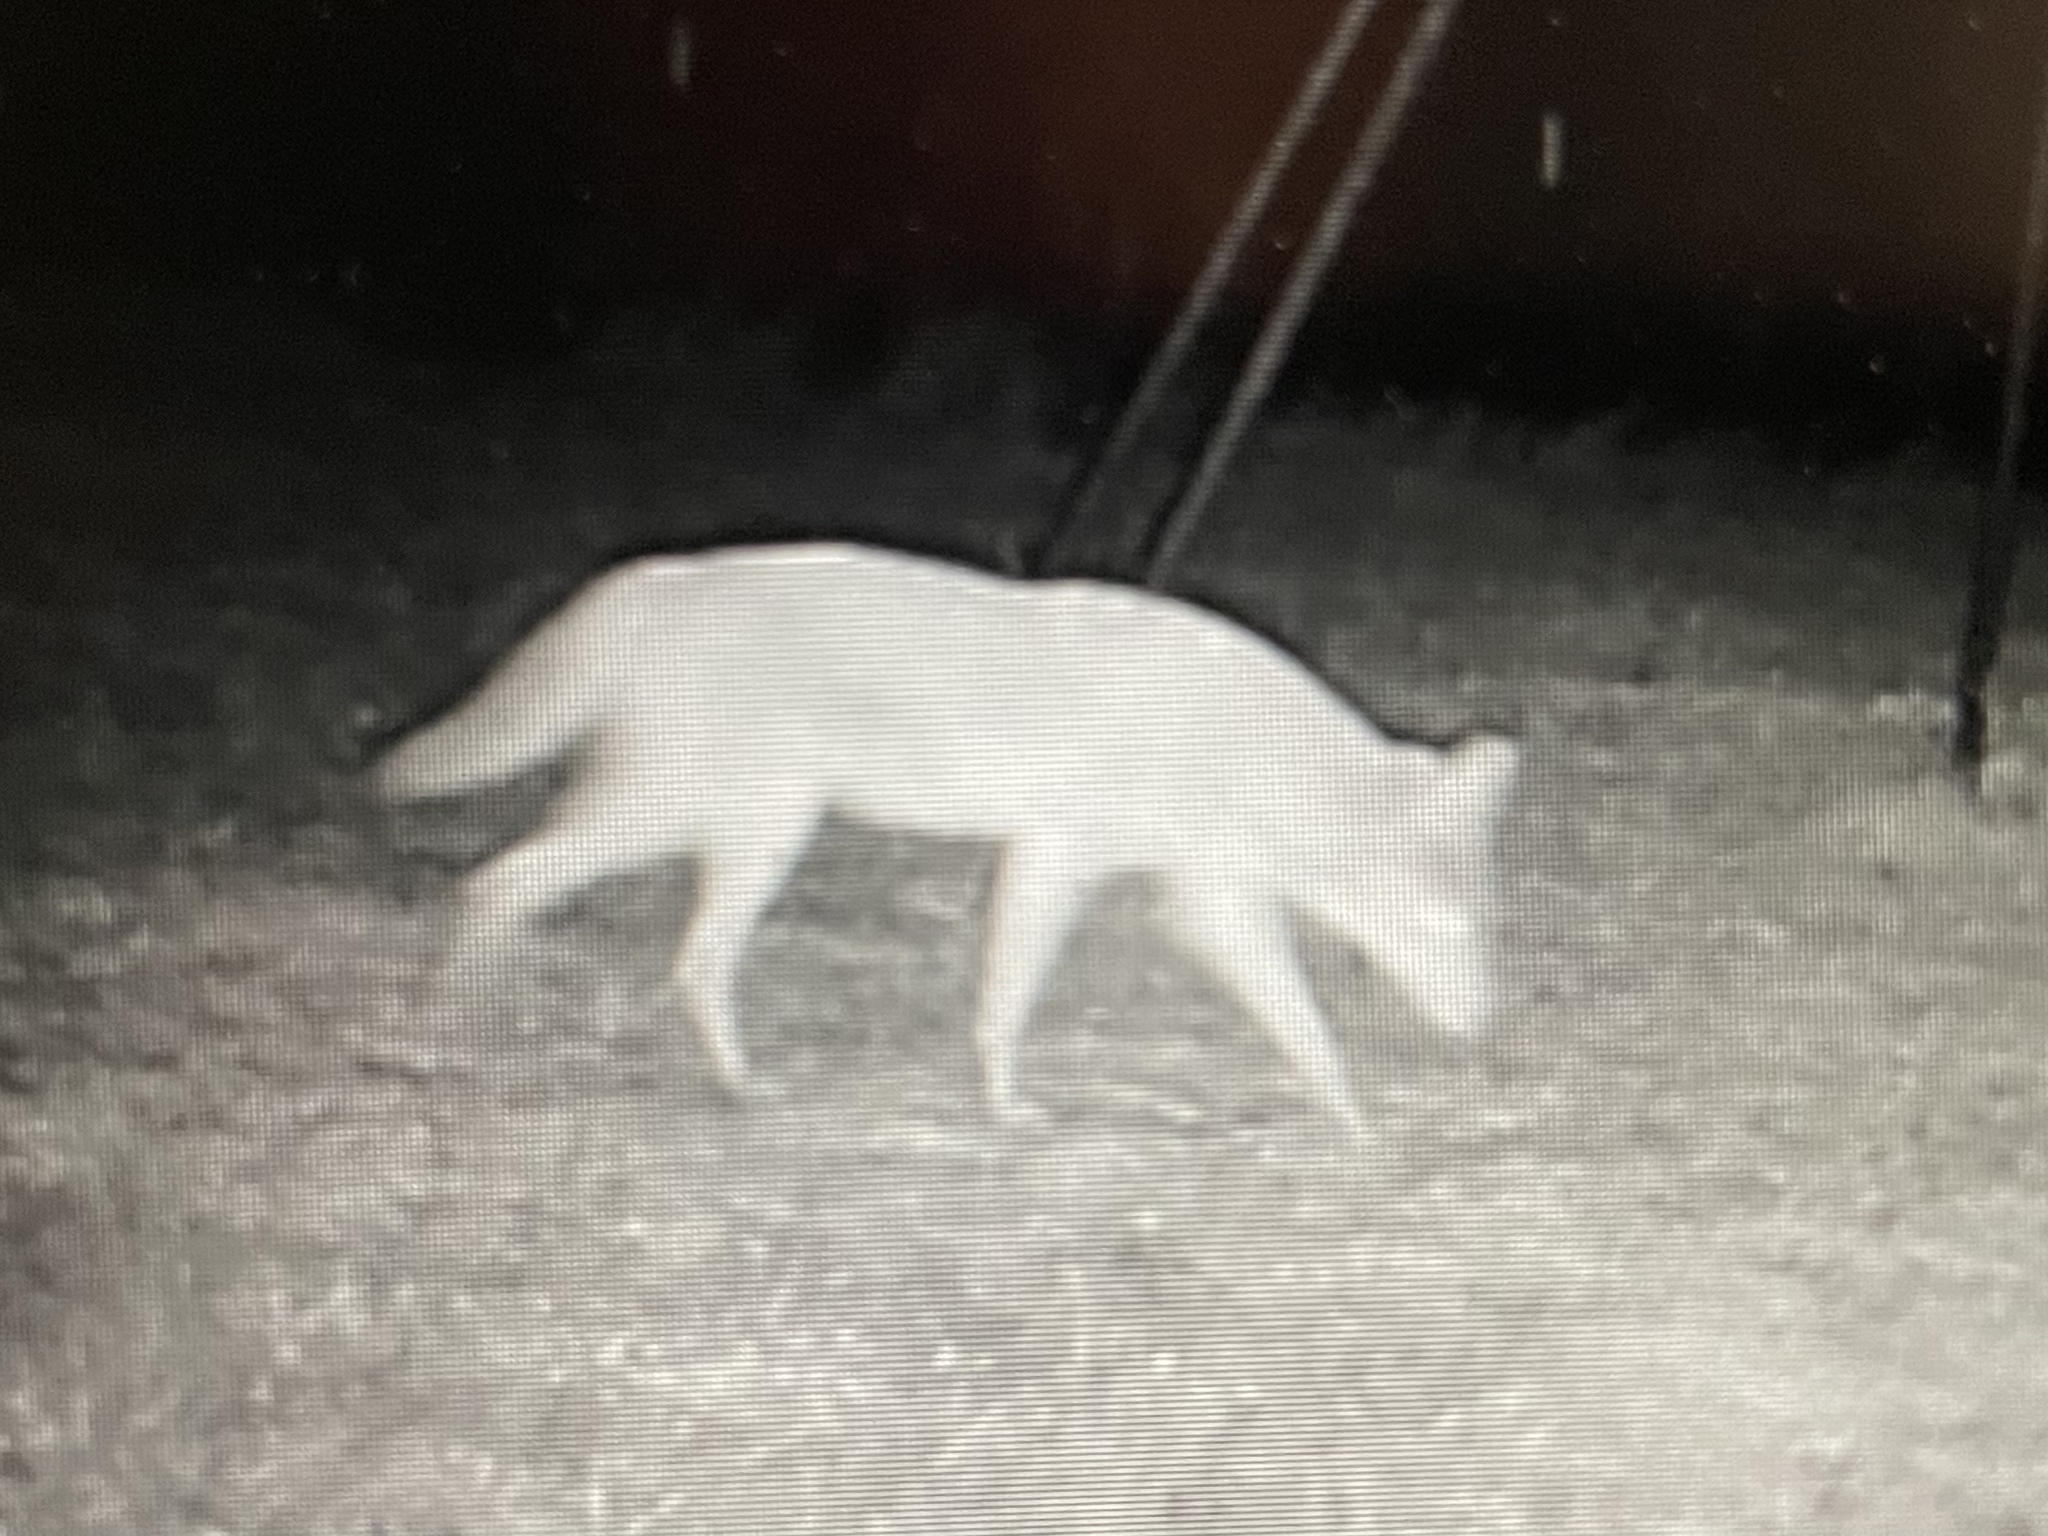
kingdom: Animalia
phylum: Chordata
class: Mammalia
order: Carnivora
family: Canidae
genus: Canis
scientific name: Canis latrans
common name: Coyote
